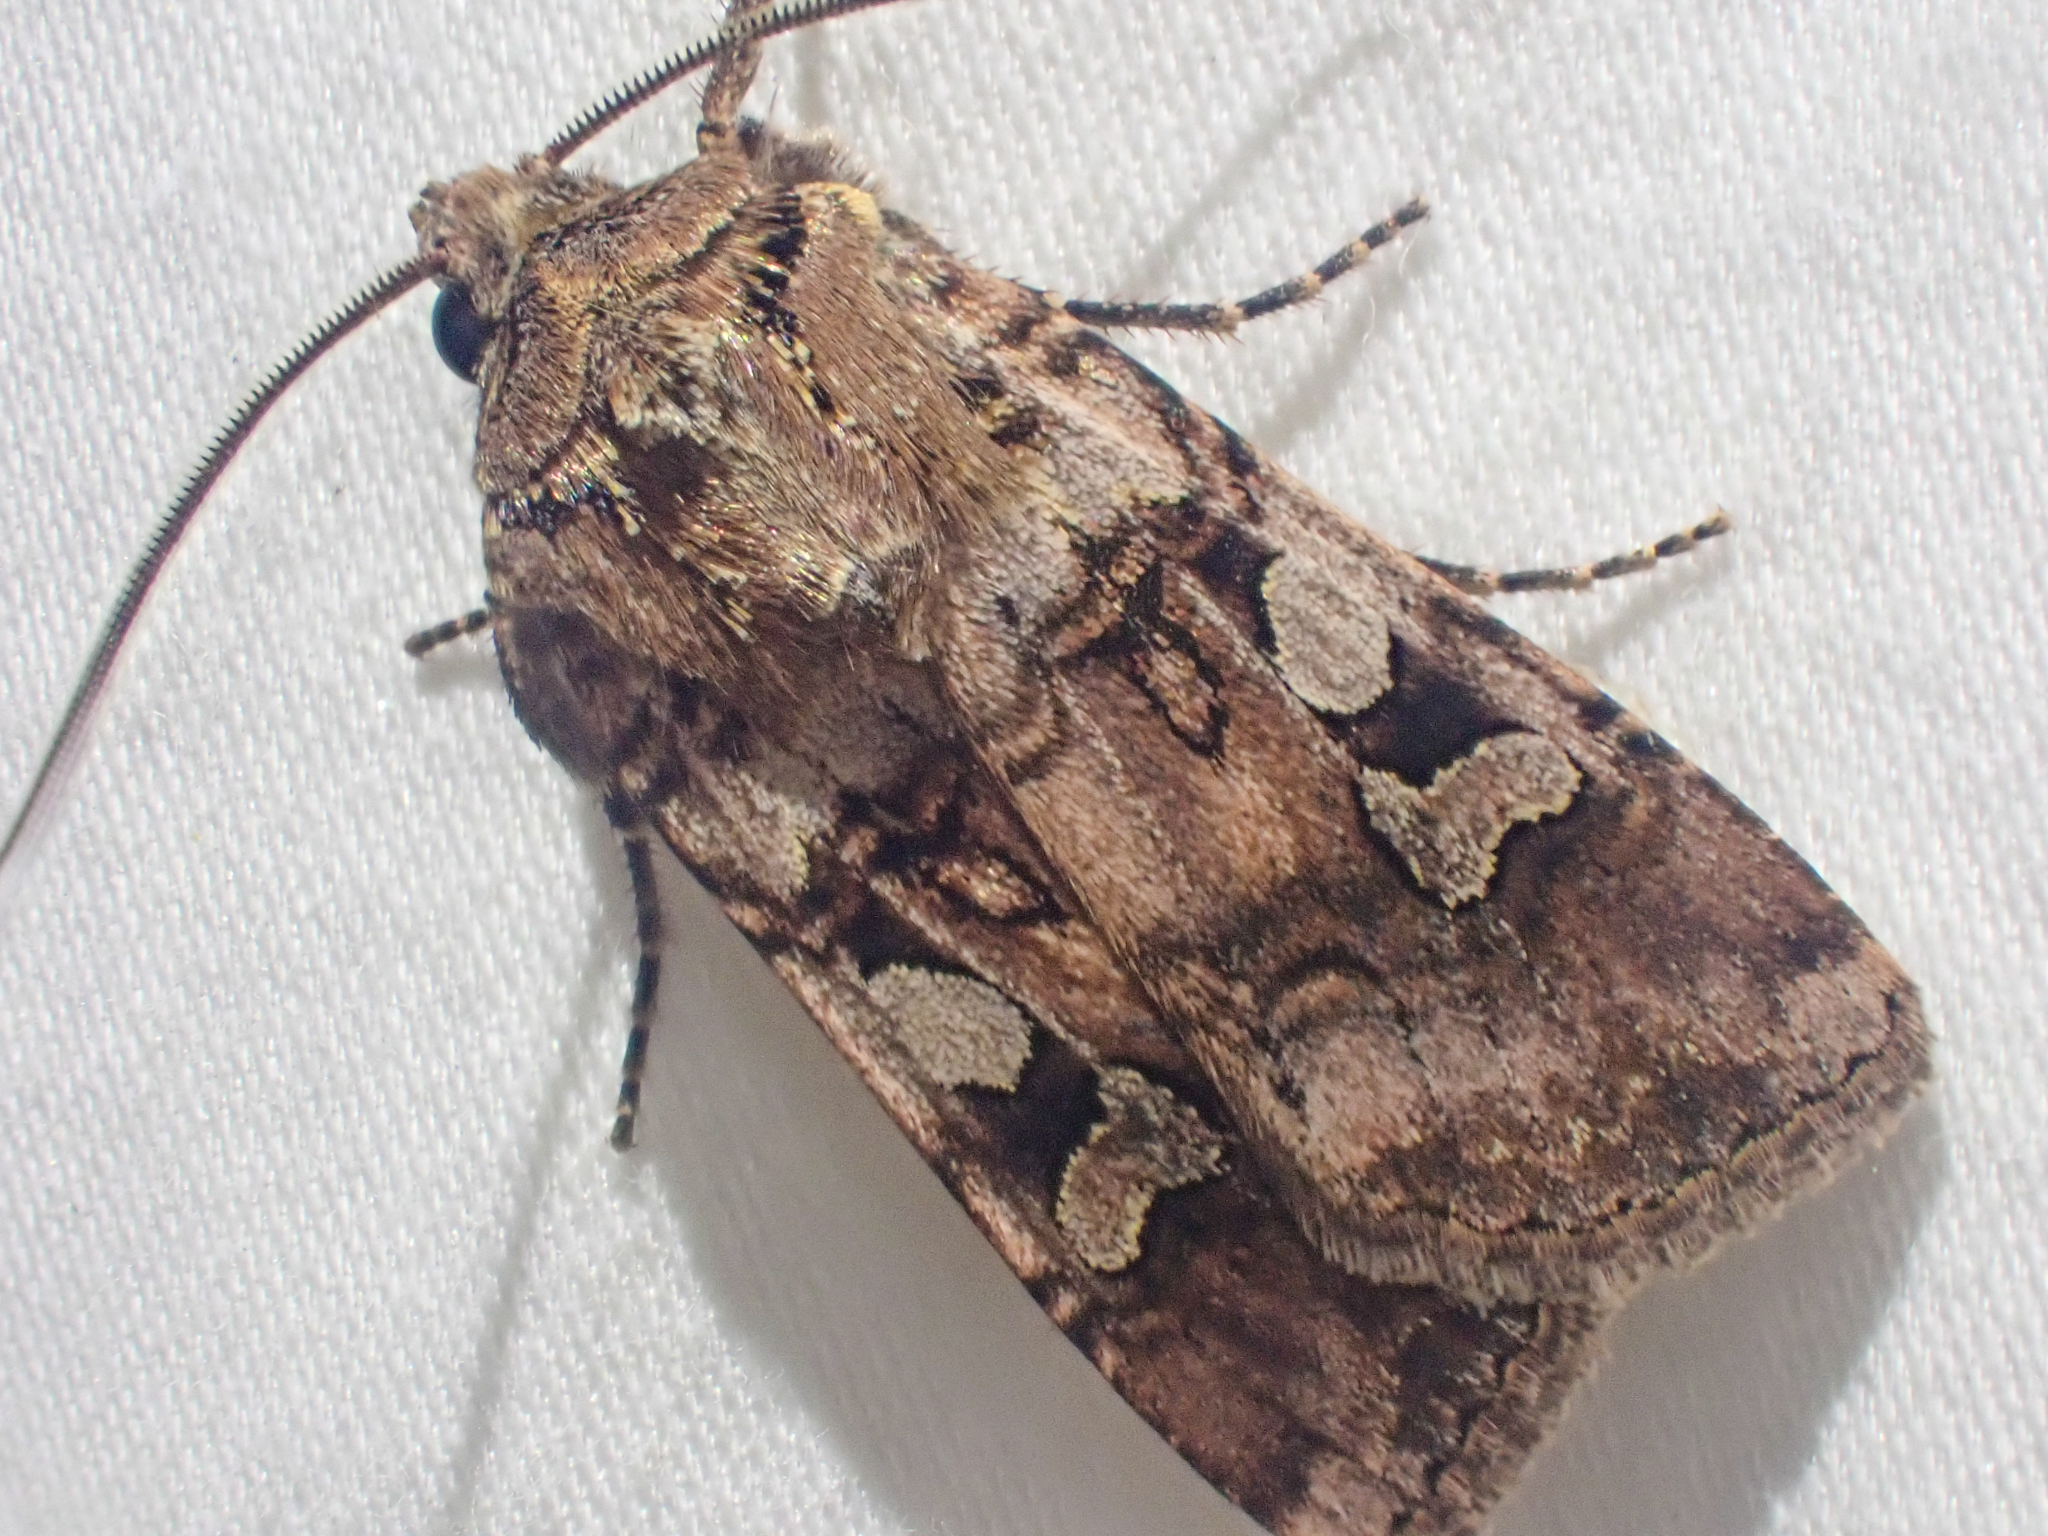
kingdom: Animalia
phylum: Arthropoda
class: Insecta
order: Lepidoptera
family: Noctuidae
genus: Euxoa
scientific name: Euxoa lillooet
